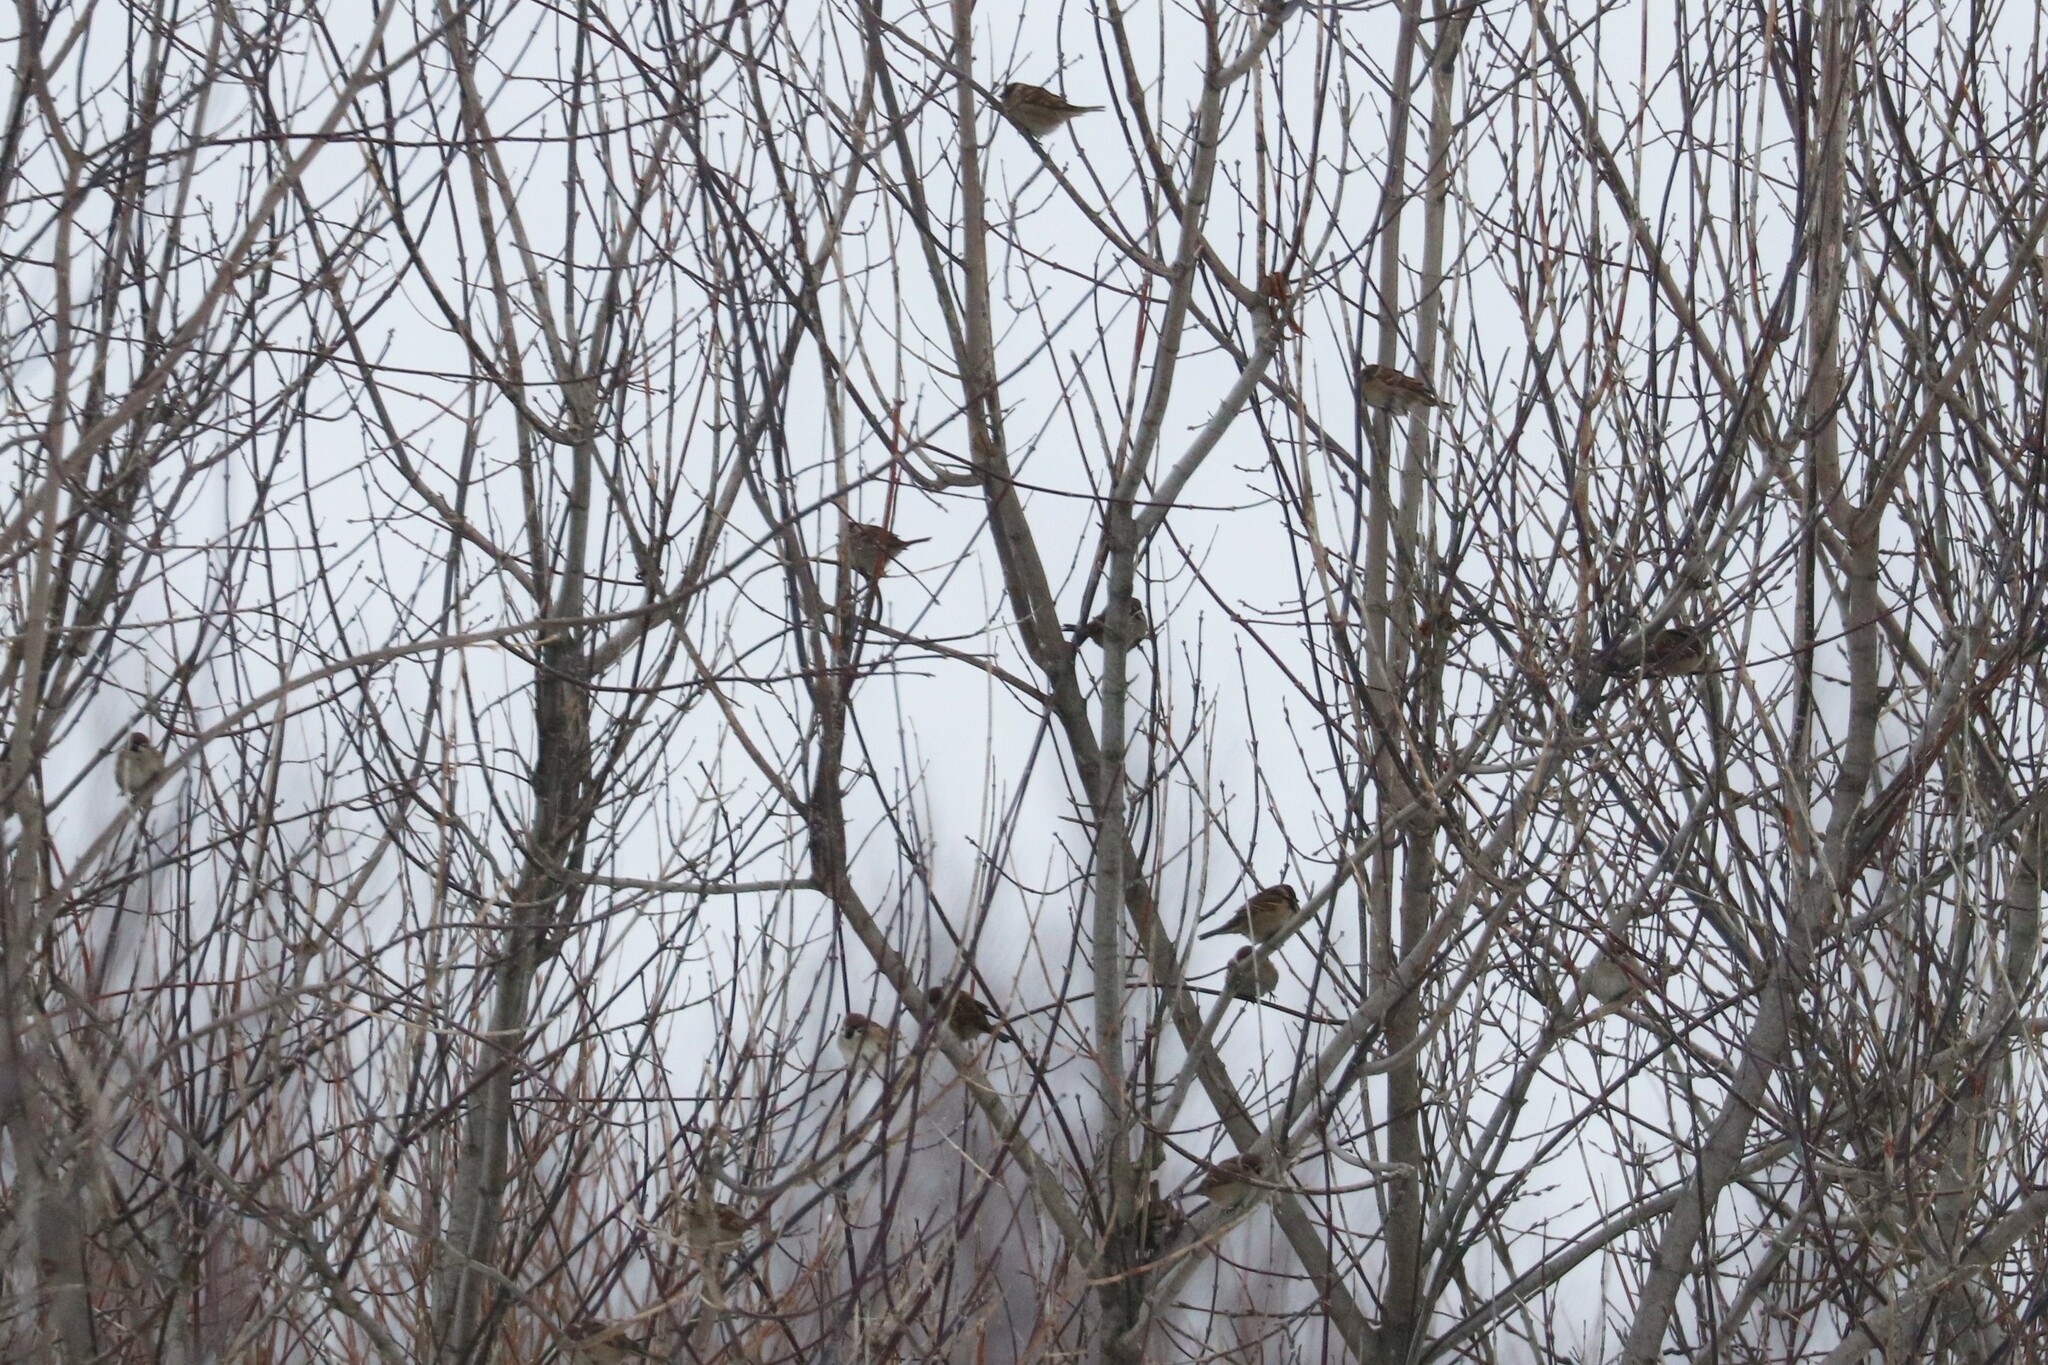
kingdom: Animalia
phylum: Chordata
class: Aves
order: Passeriformes
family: Passeridae
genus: Passer
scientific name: Passer montanus
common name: Eurasian tree sparrow
